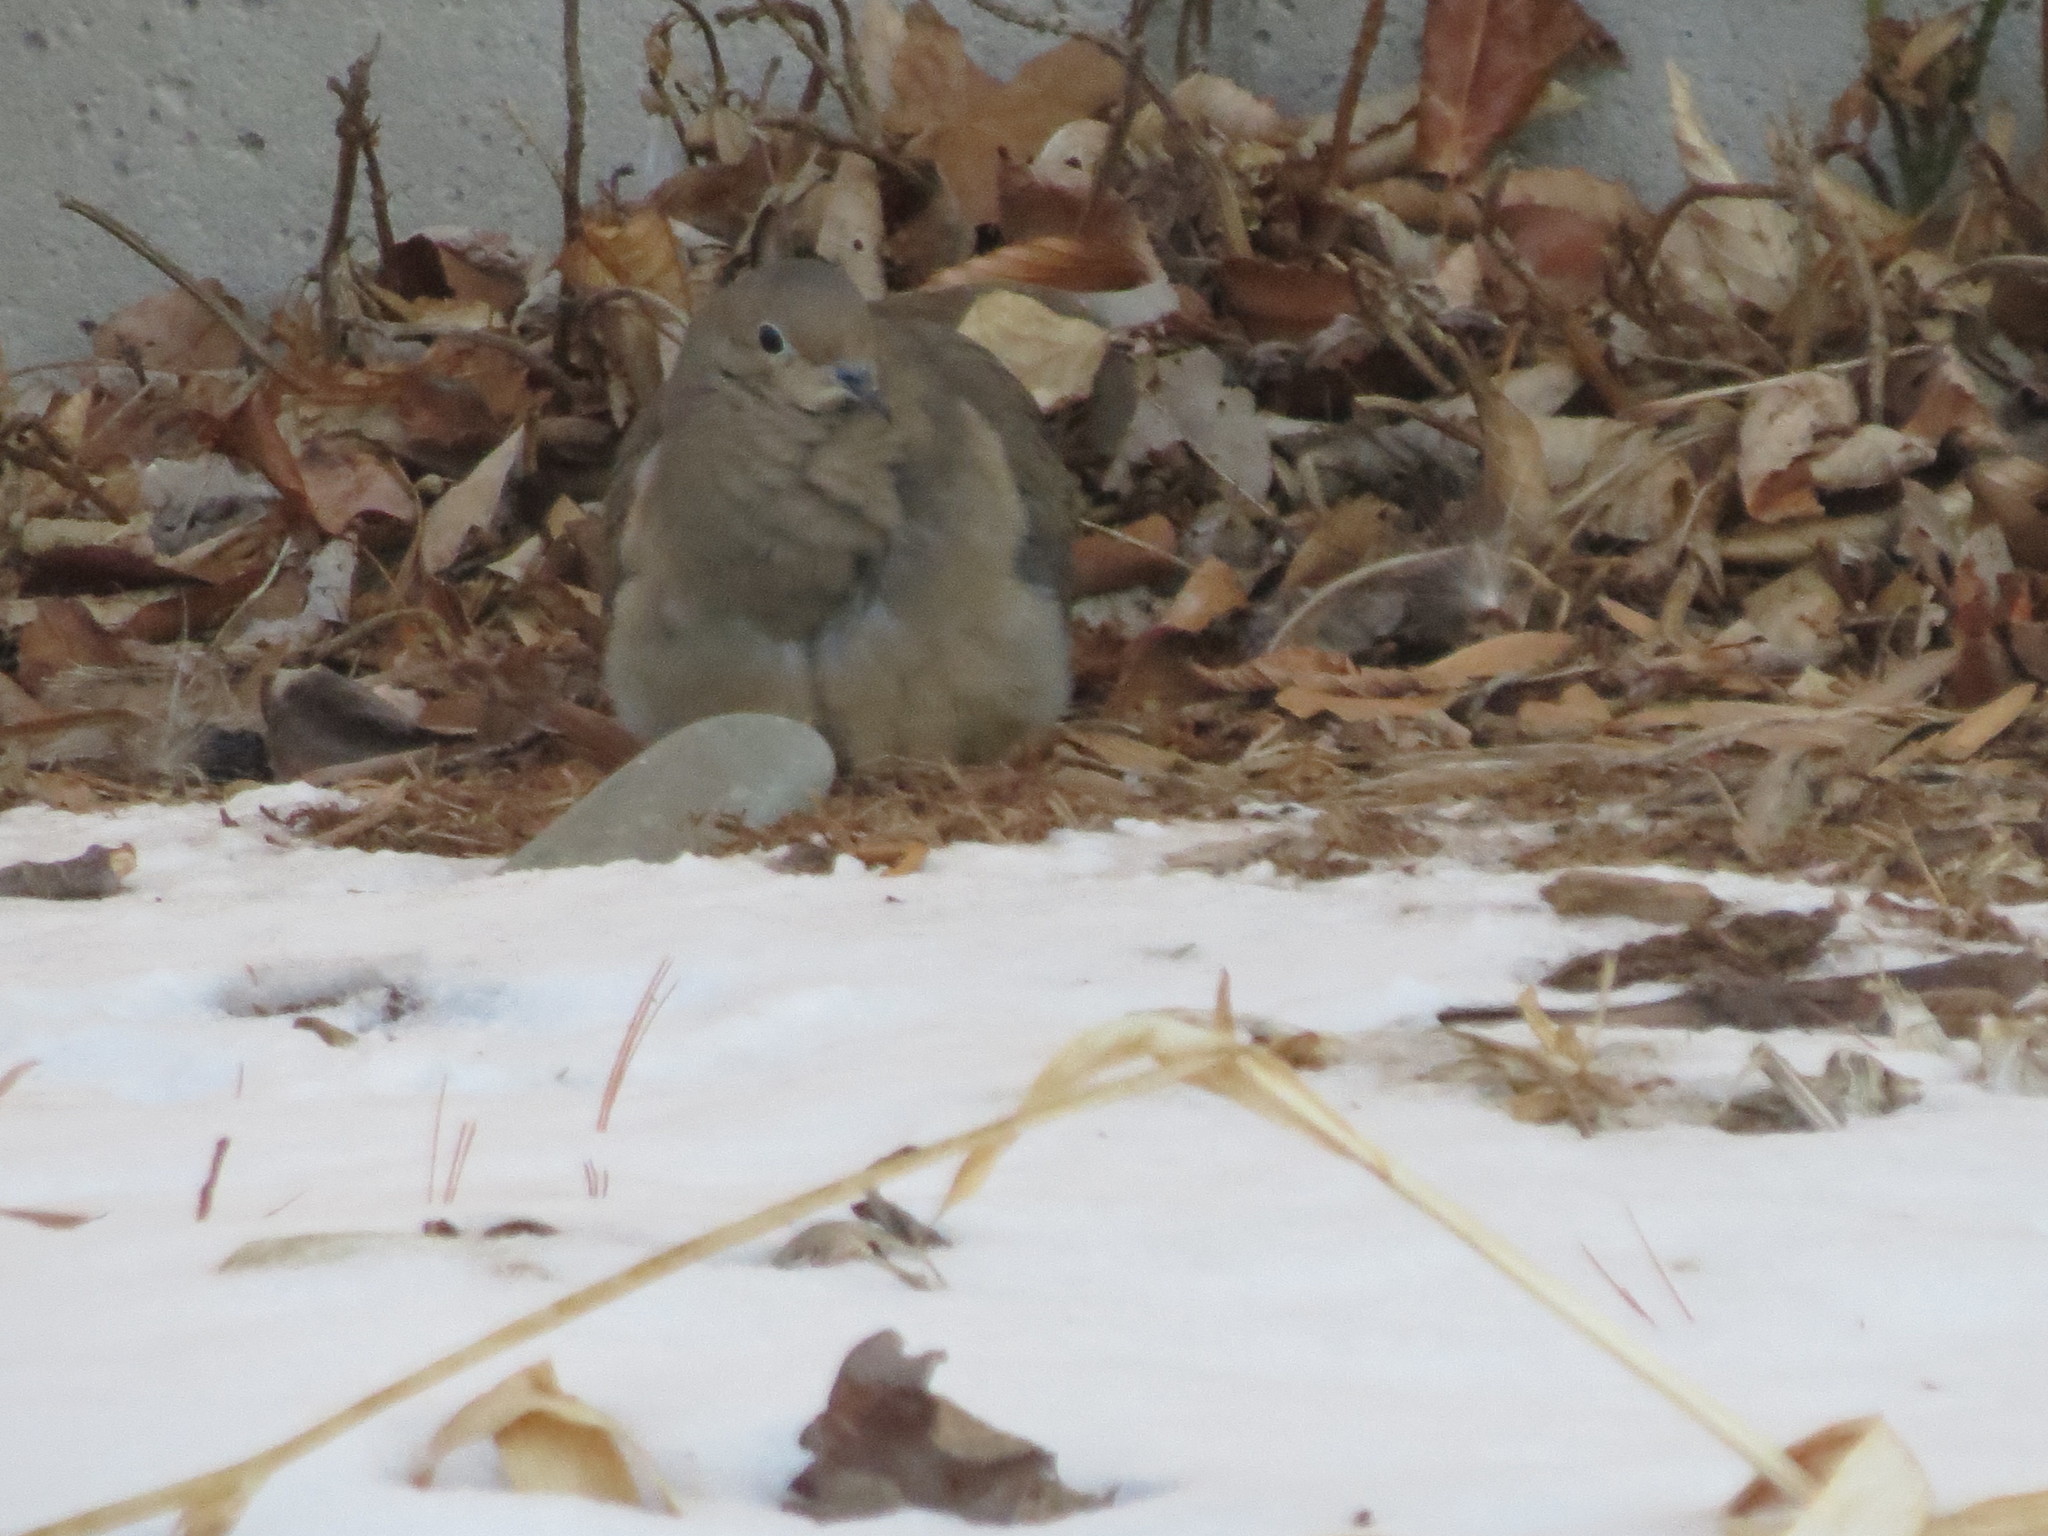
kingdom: Animalia
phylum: Chordata
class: Aves
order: Columbiformes
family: Columbidae
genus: Zenaida
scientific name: Zenaida macroura
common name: Mourning dove
